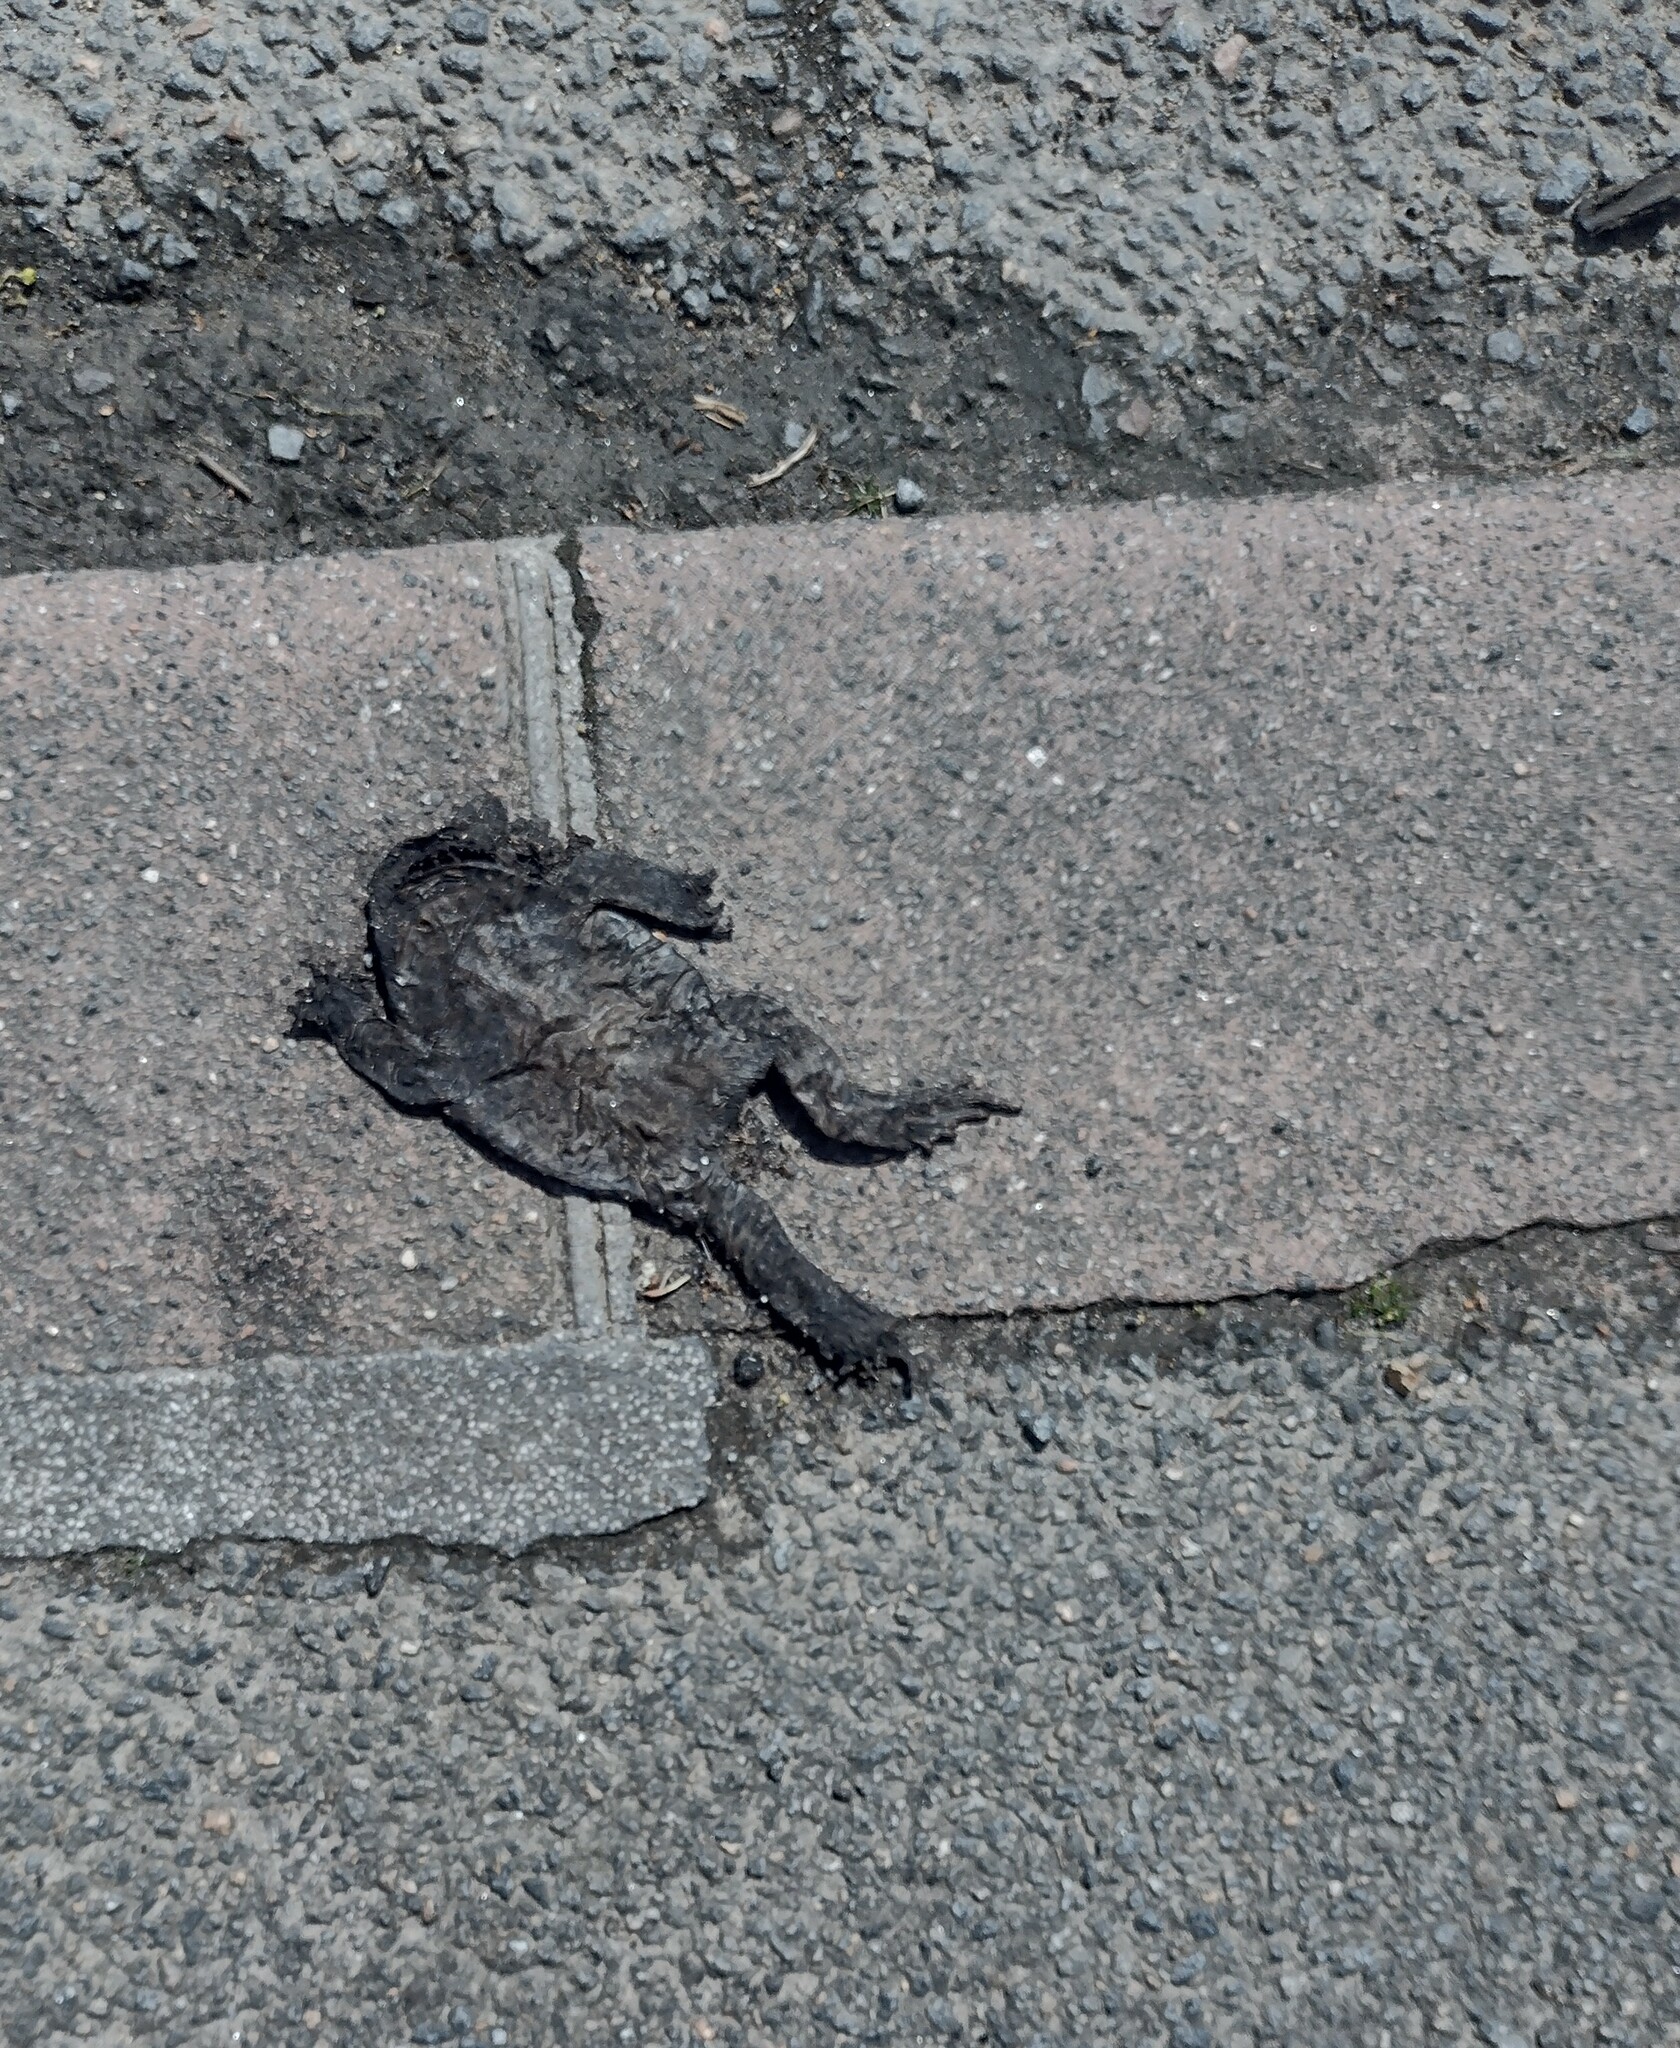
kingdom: Animalia
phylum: Chordata
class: Amphibia
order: Anura
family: Bufonidae
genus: Bufo
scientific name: Bufo spinosus
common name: Western common toad
